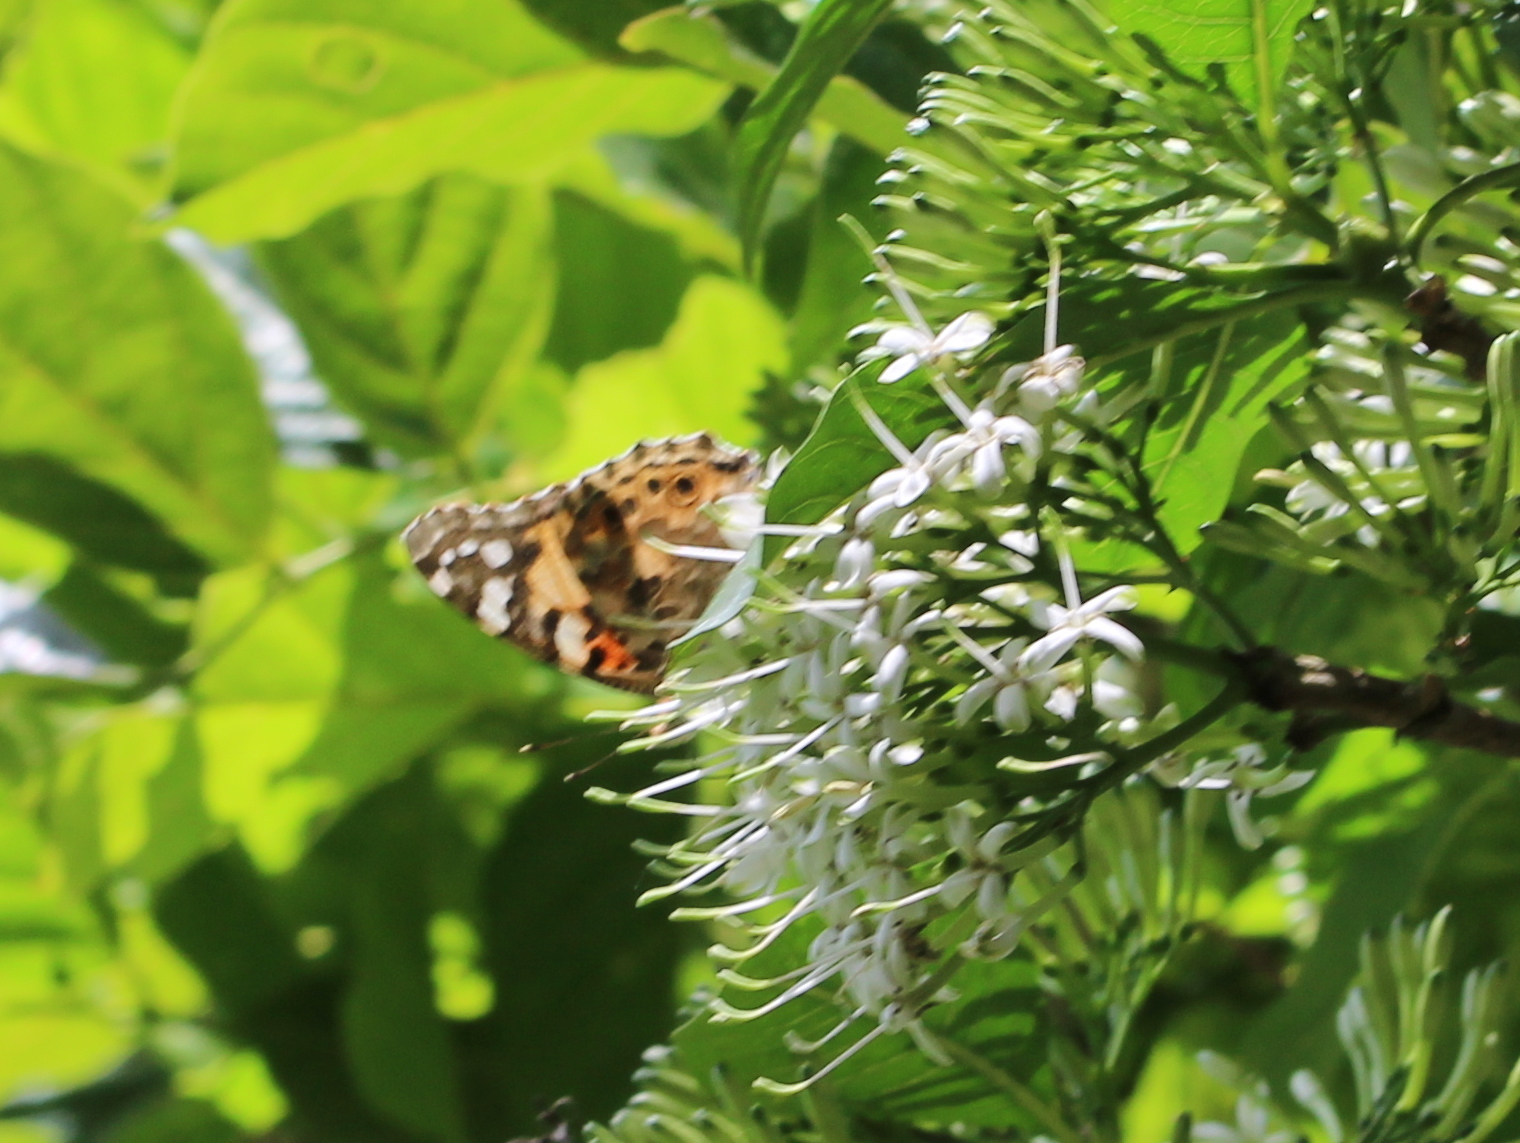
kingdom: Animalia
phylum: Arthropoda
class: Insecta
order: Lepidoptera
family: Nymphalidae
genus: Vanessa
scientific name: Vanessa cardui
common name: Painted lady
